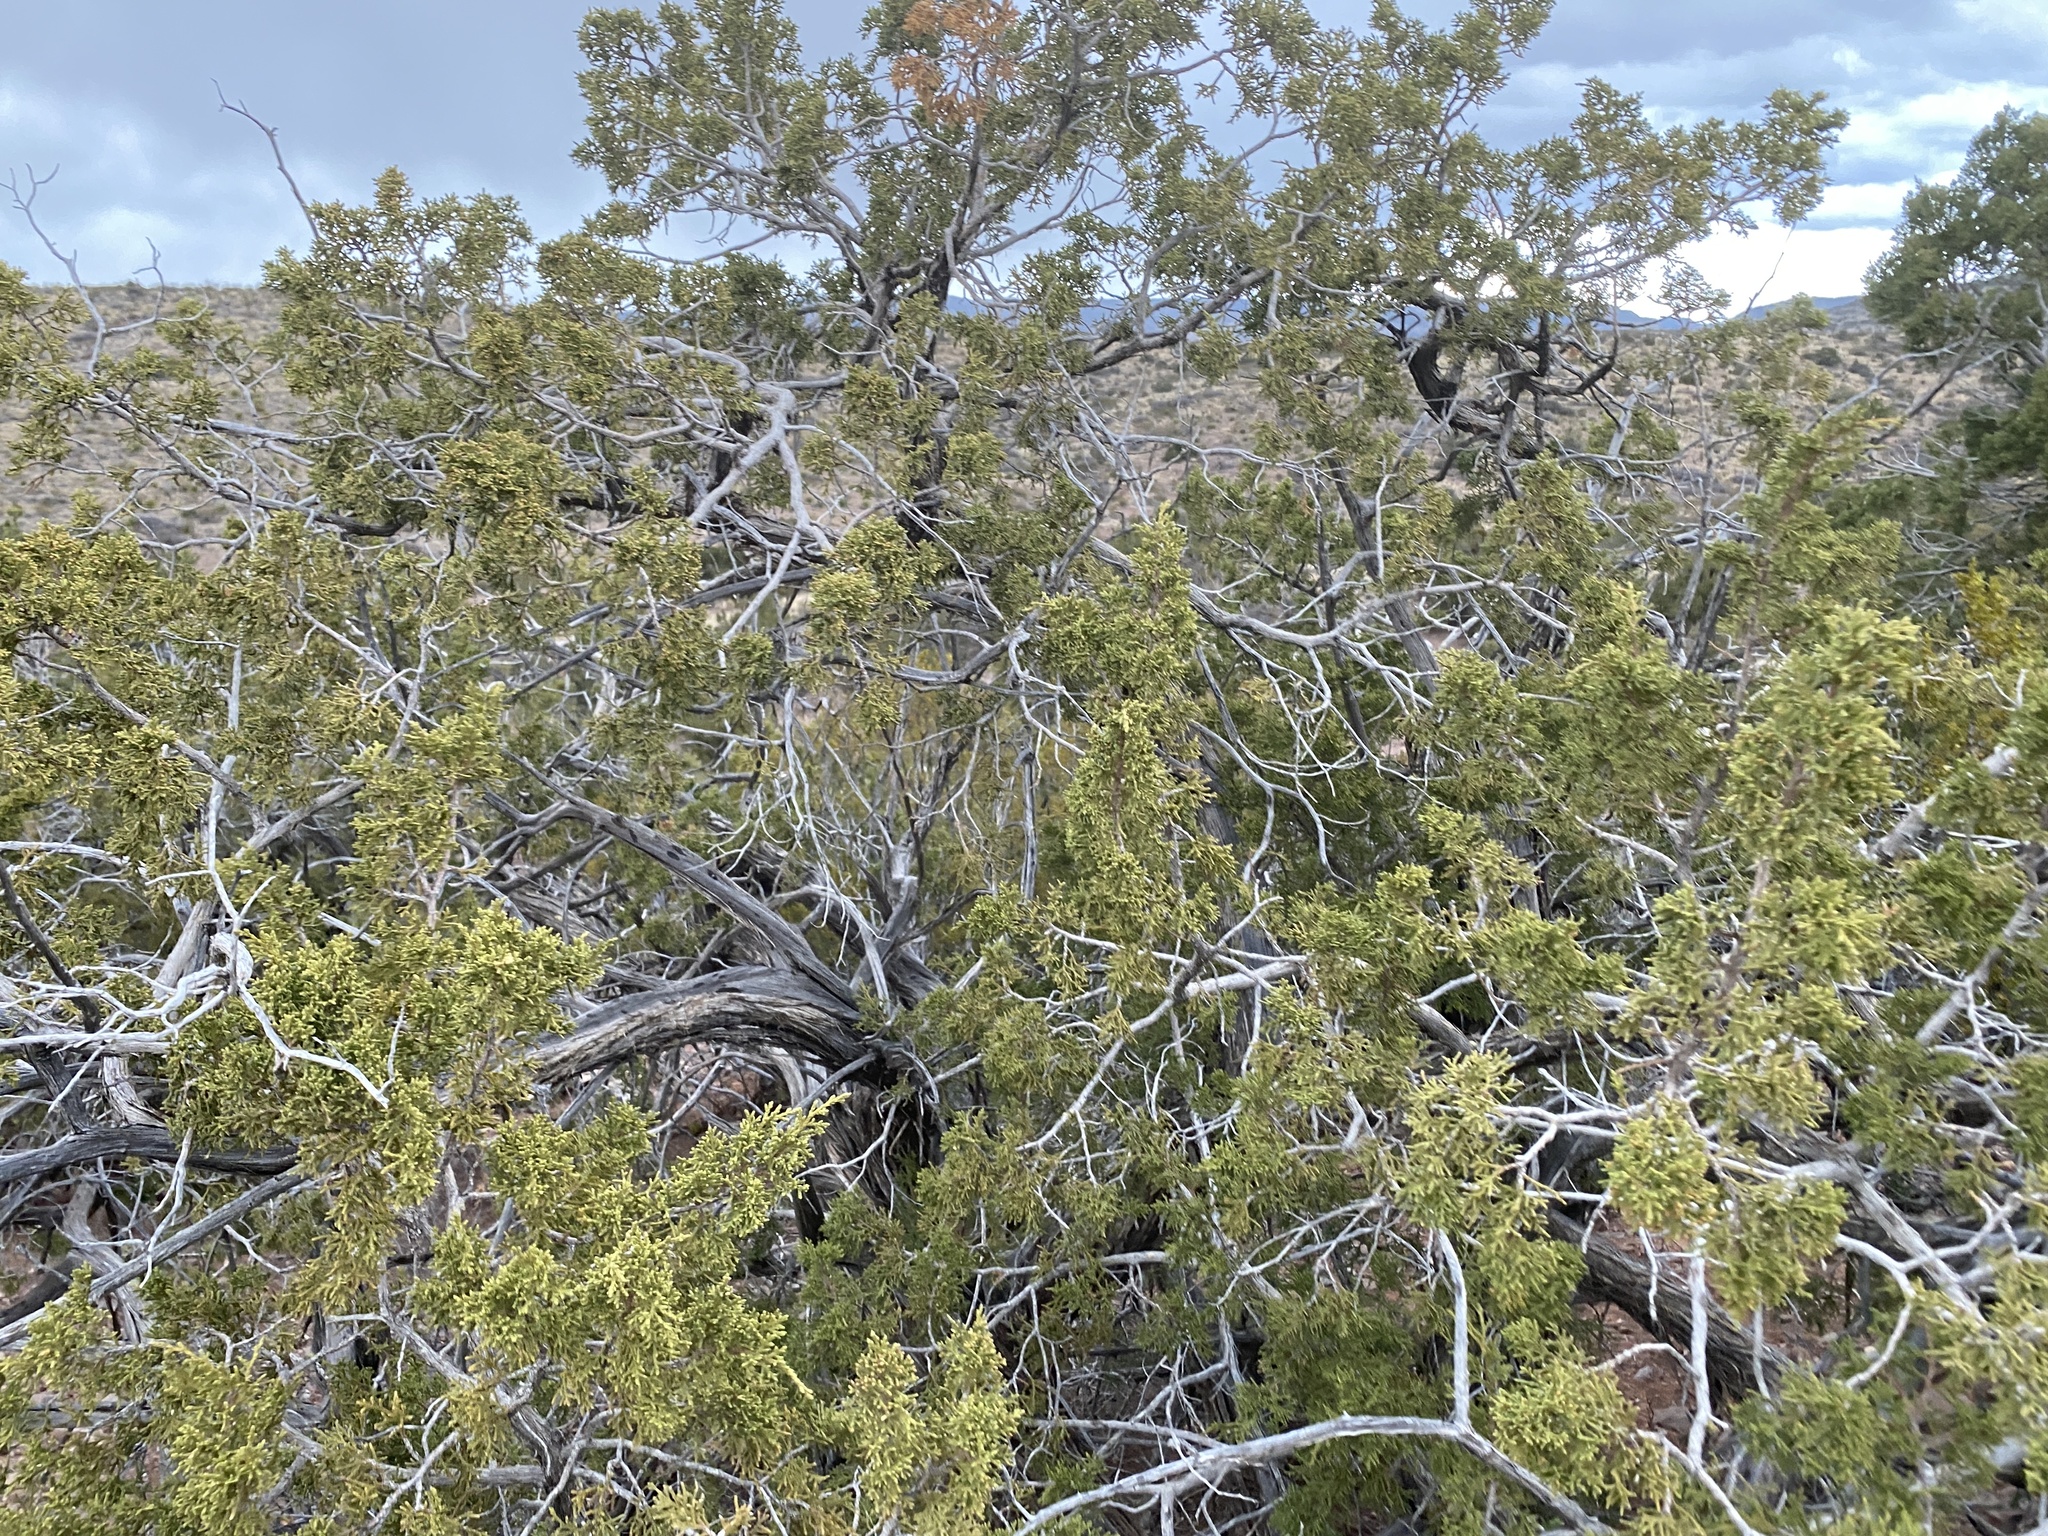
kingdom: Plantae
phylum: Tracheophyta
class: Pinopsida
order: Pinales
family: Cupressaceae
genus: Juniperus
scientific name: Juniperus monosperma
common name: One-seed juniper
